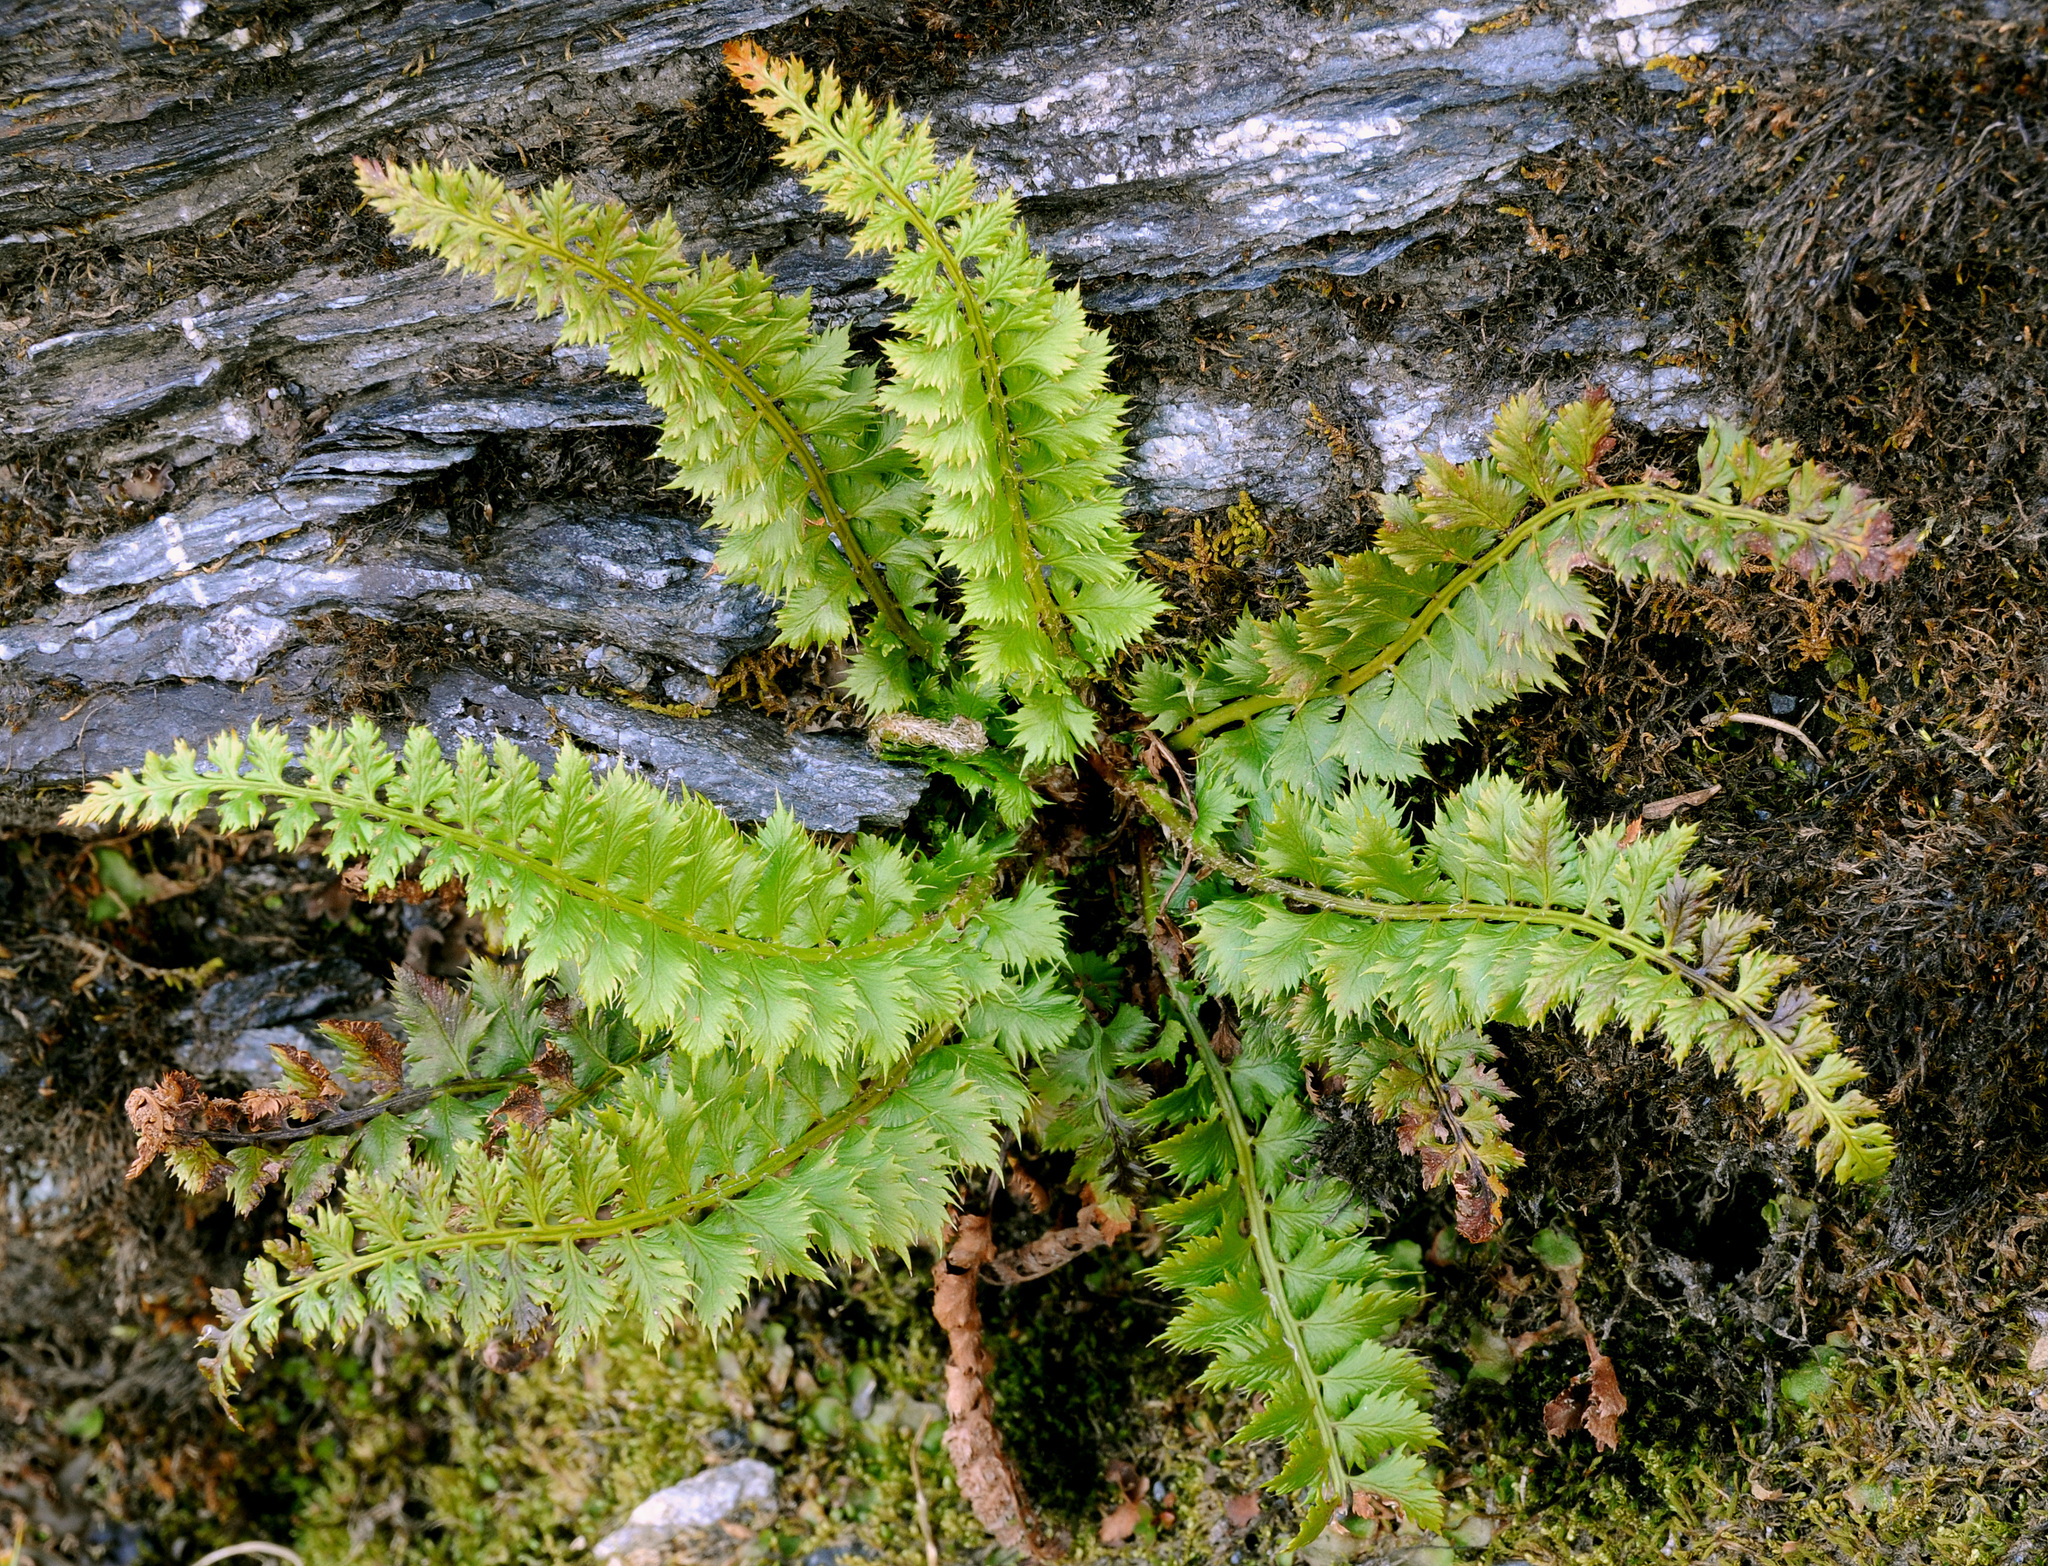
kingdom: Plantae
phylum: Tracheophyta
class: Polypodiopsida
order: Polypodiales
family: Dryopteridaceae
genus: Polystichum
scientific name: Polystichum lonchitis
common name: Holly fern
